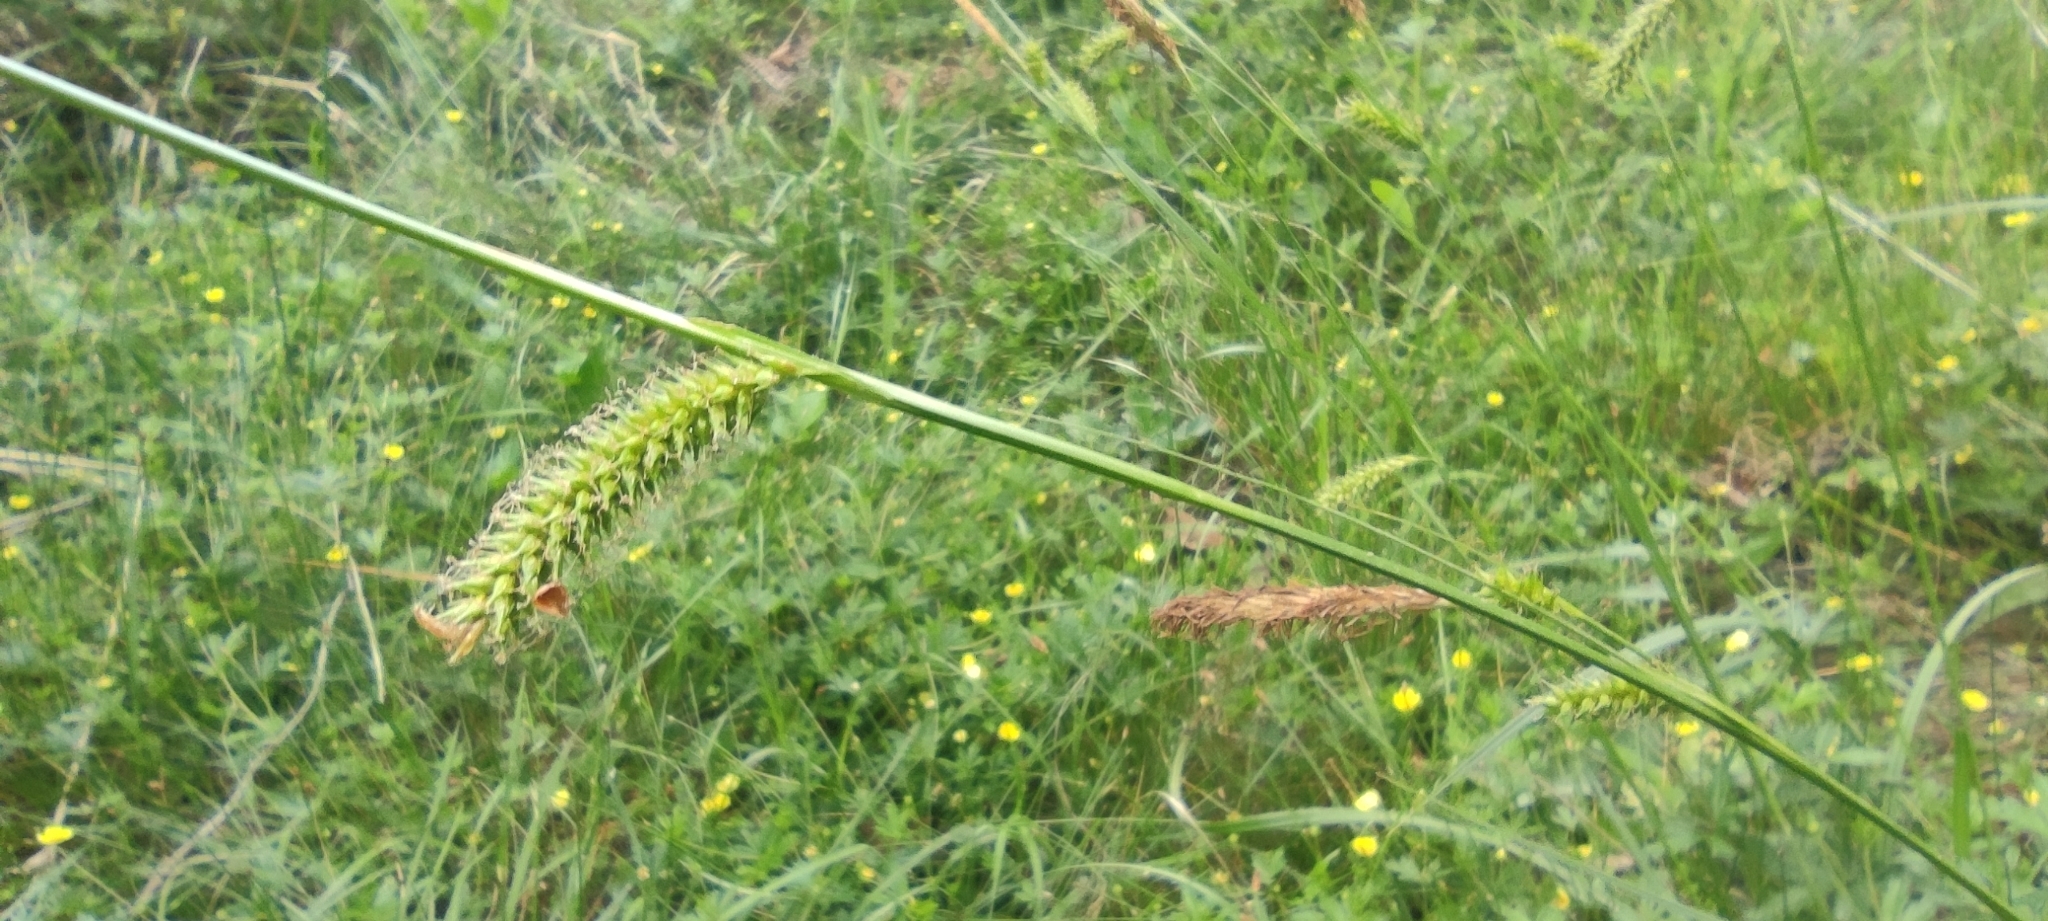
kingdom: Plantae
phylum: Tracheophyta
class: Liliopsida
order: Poales
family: Cyperaceae
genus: Carex
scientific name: Carex laevigata
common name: Smooth-stalked sedge
